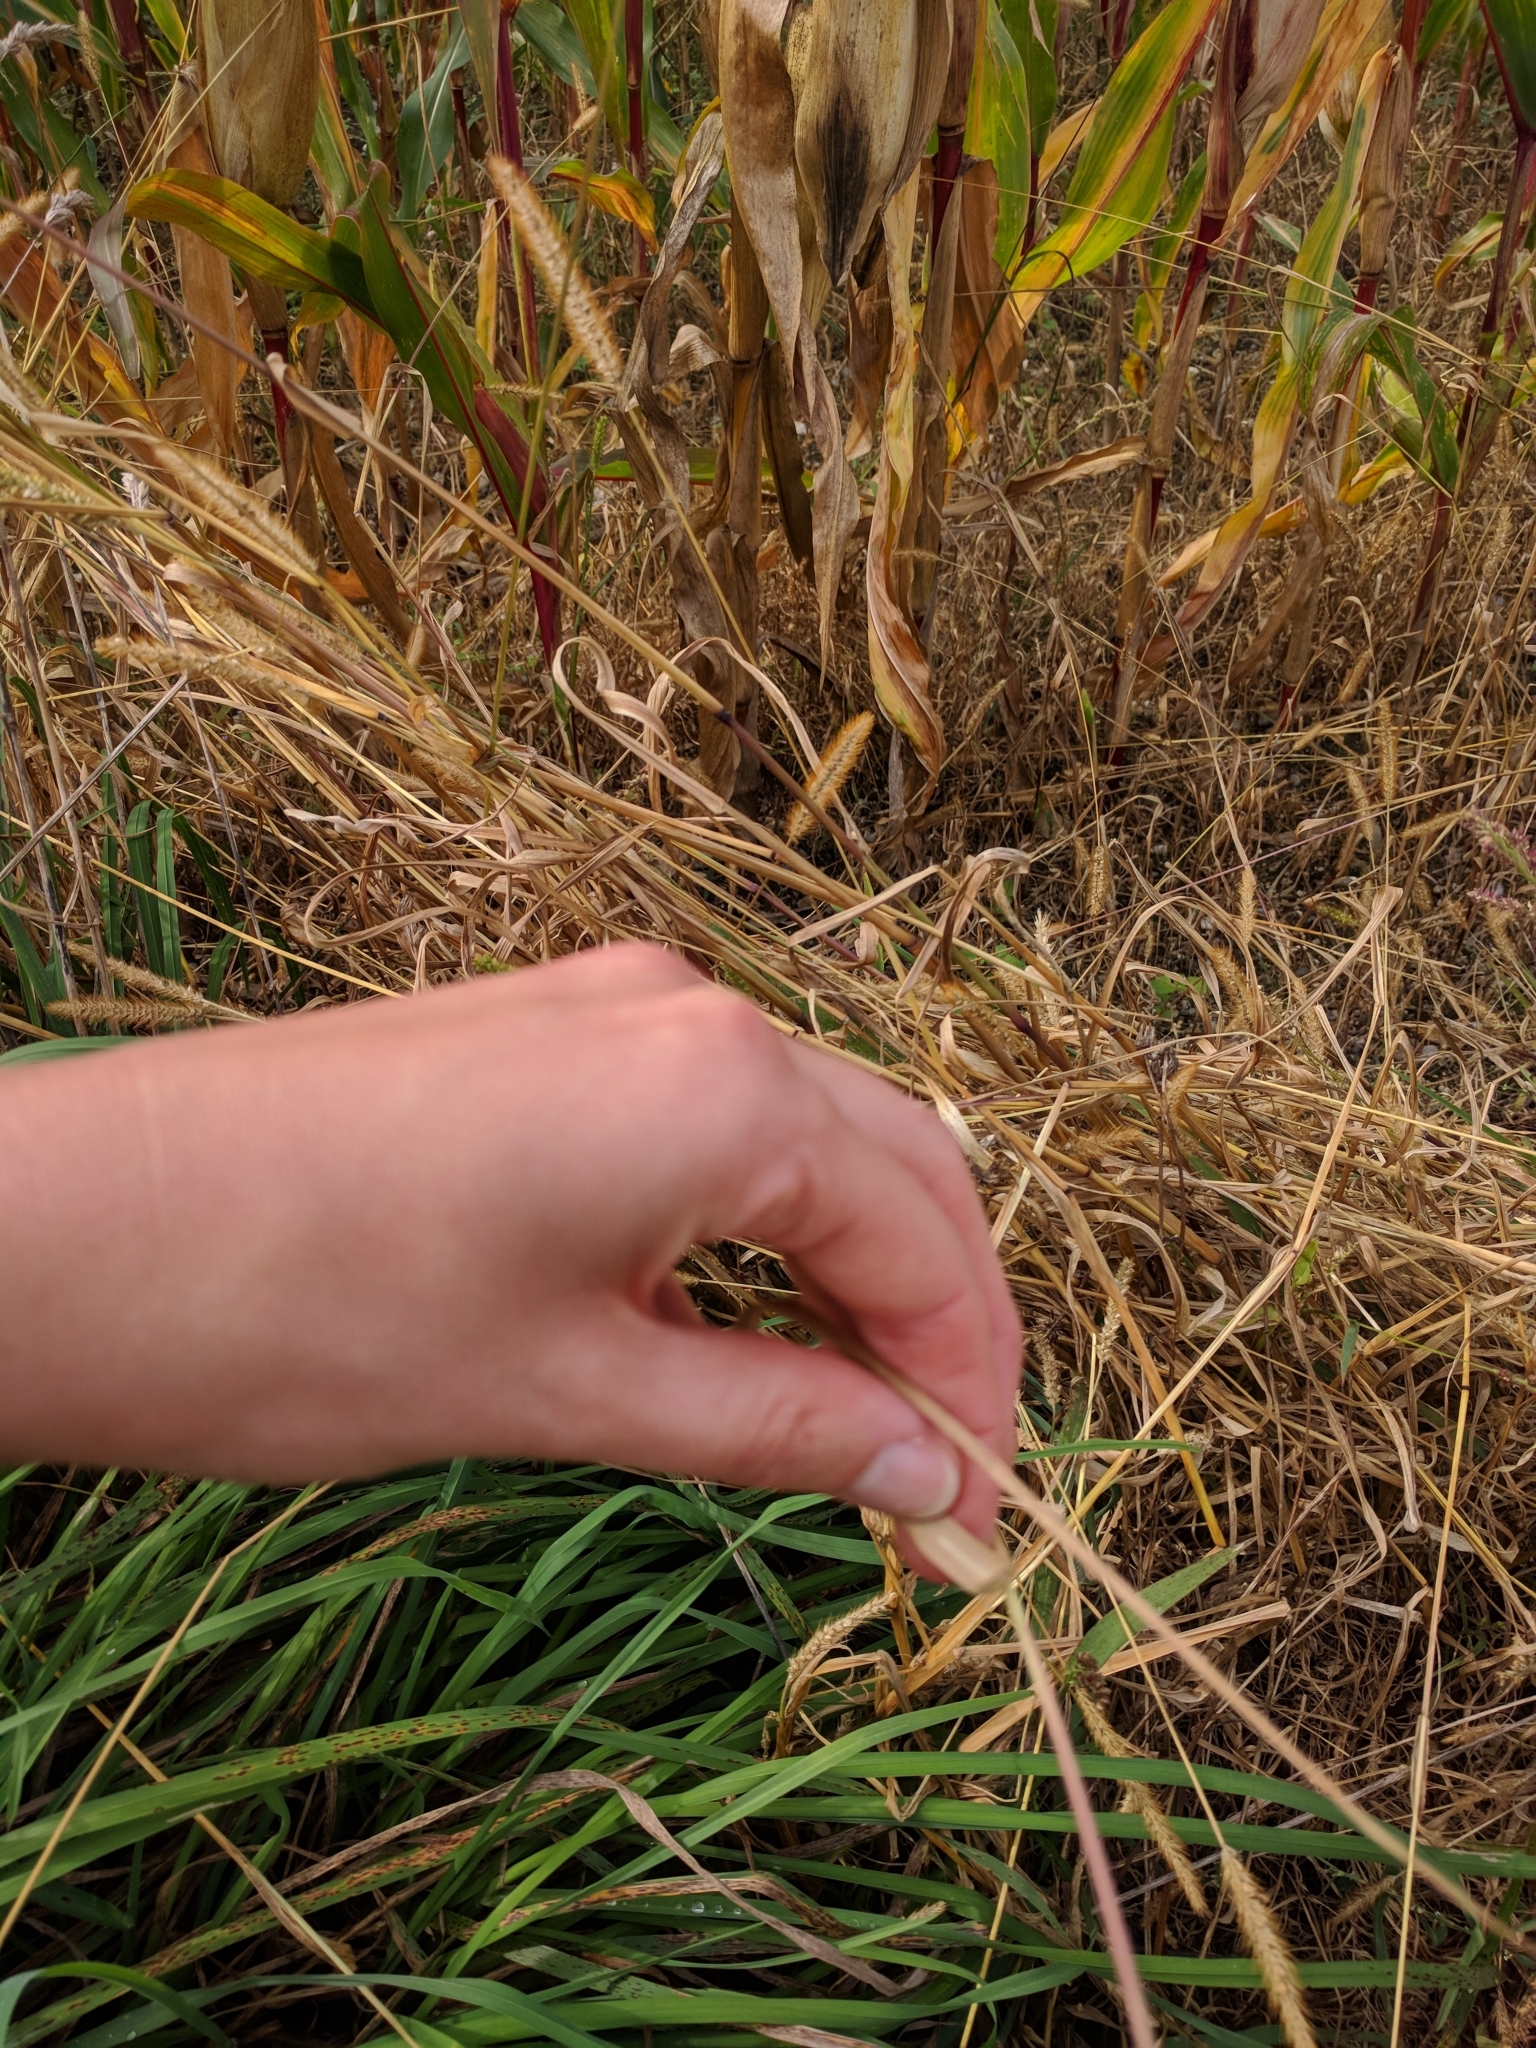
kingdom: Plantae
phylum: Tracheophyta
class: Liliopsida
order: Poales
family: Poaceae
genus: Setaria
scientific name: Setaria pumila
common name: Yellow bristle-grass
